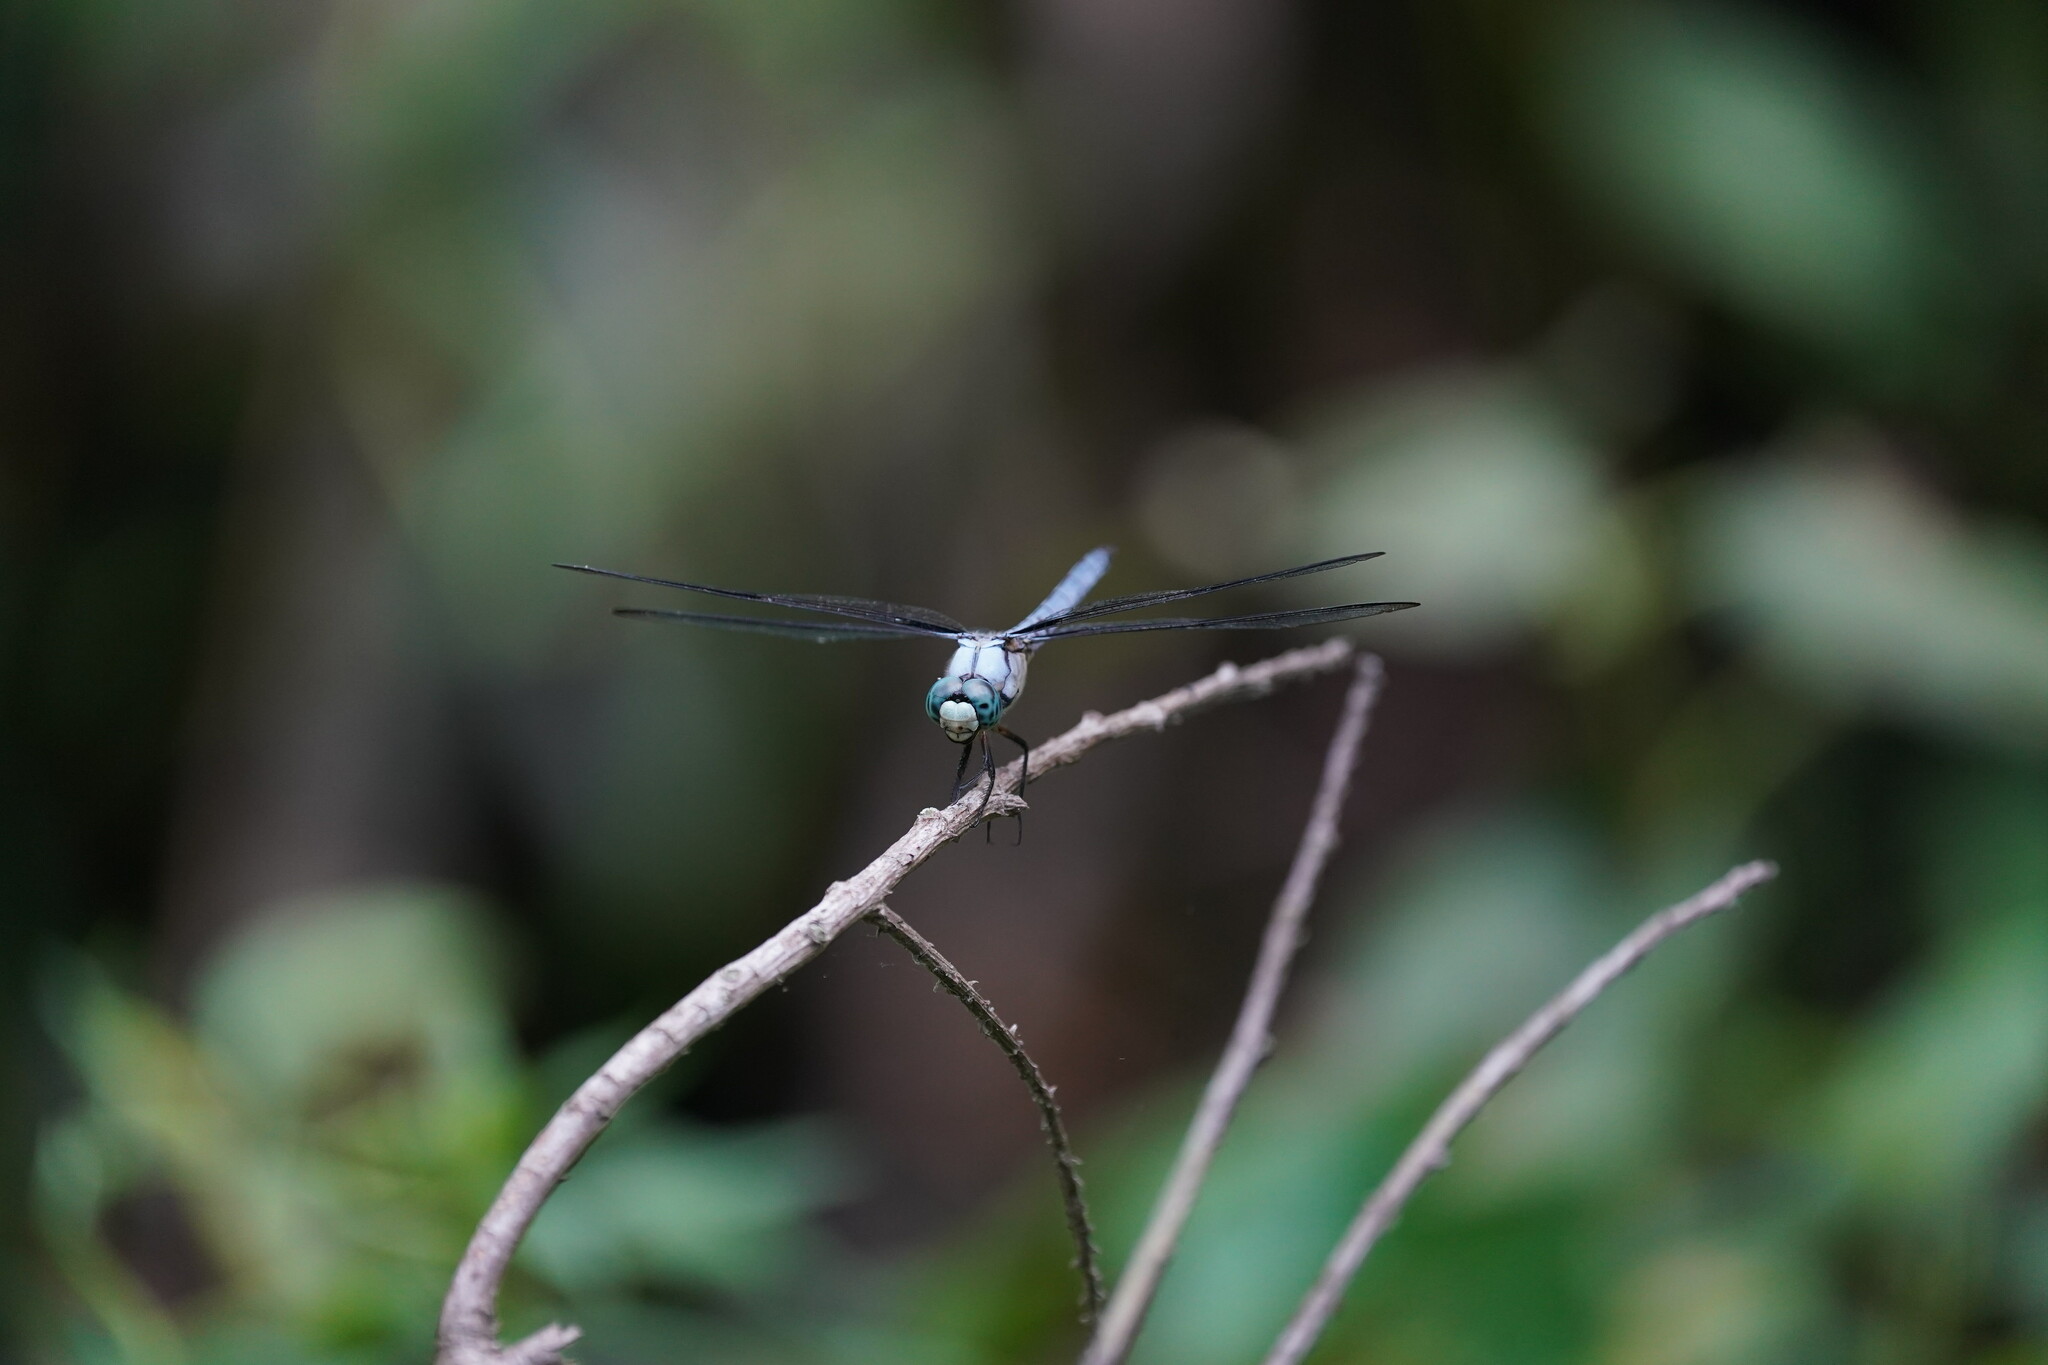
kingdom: Animalia
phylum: Arthropoda
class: Insecta
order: Odonata
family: Libellulidae
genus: Libellula
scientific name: Libellula vibrans
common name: Great blue skimmer
